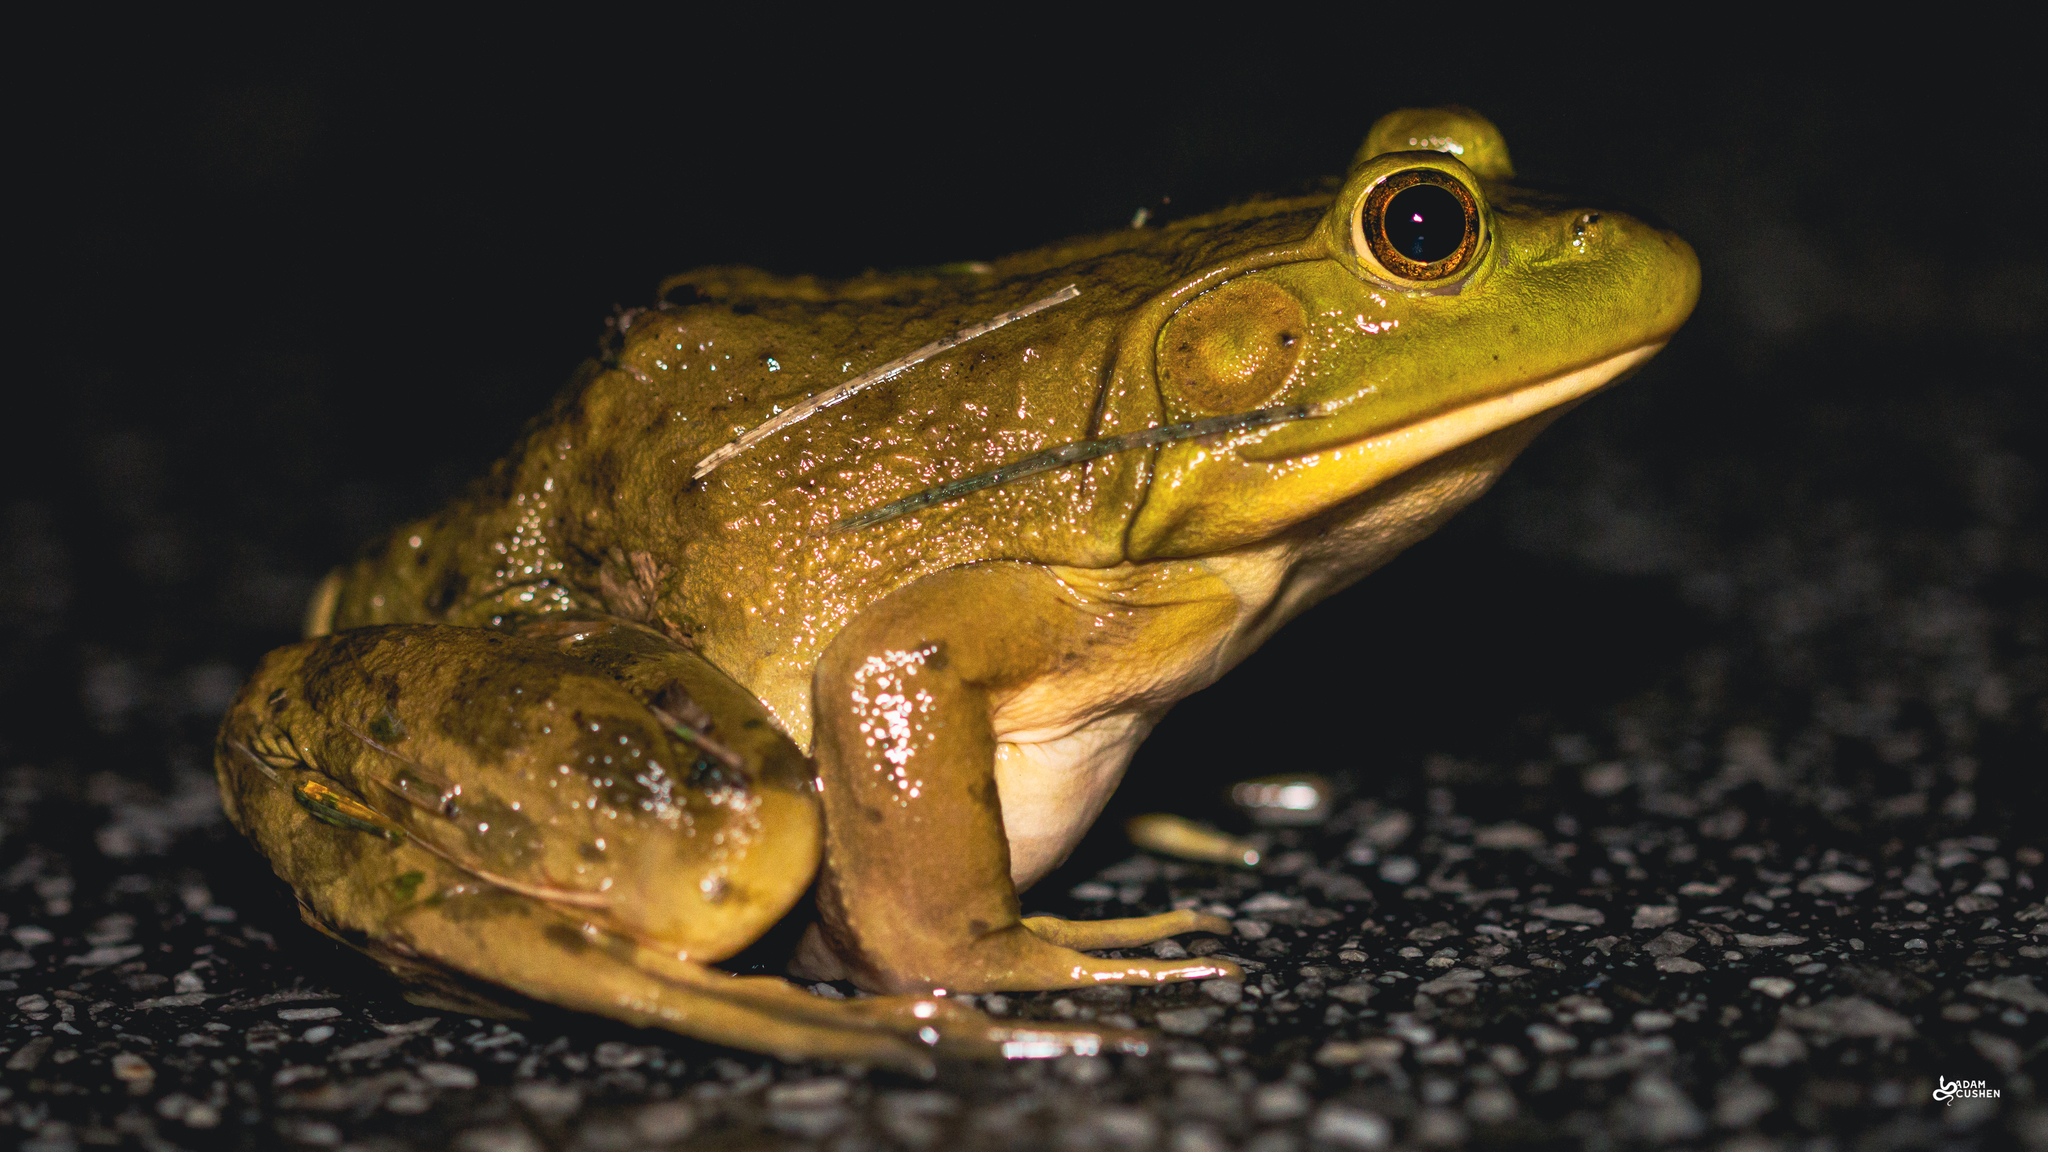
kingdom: Animalia
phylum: Chordata
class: Amphibia
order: Anura
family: Ranidae
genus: Lithobates
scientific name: Lithobates catesbeianus
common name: American bullfrog
